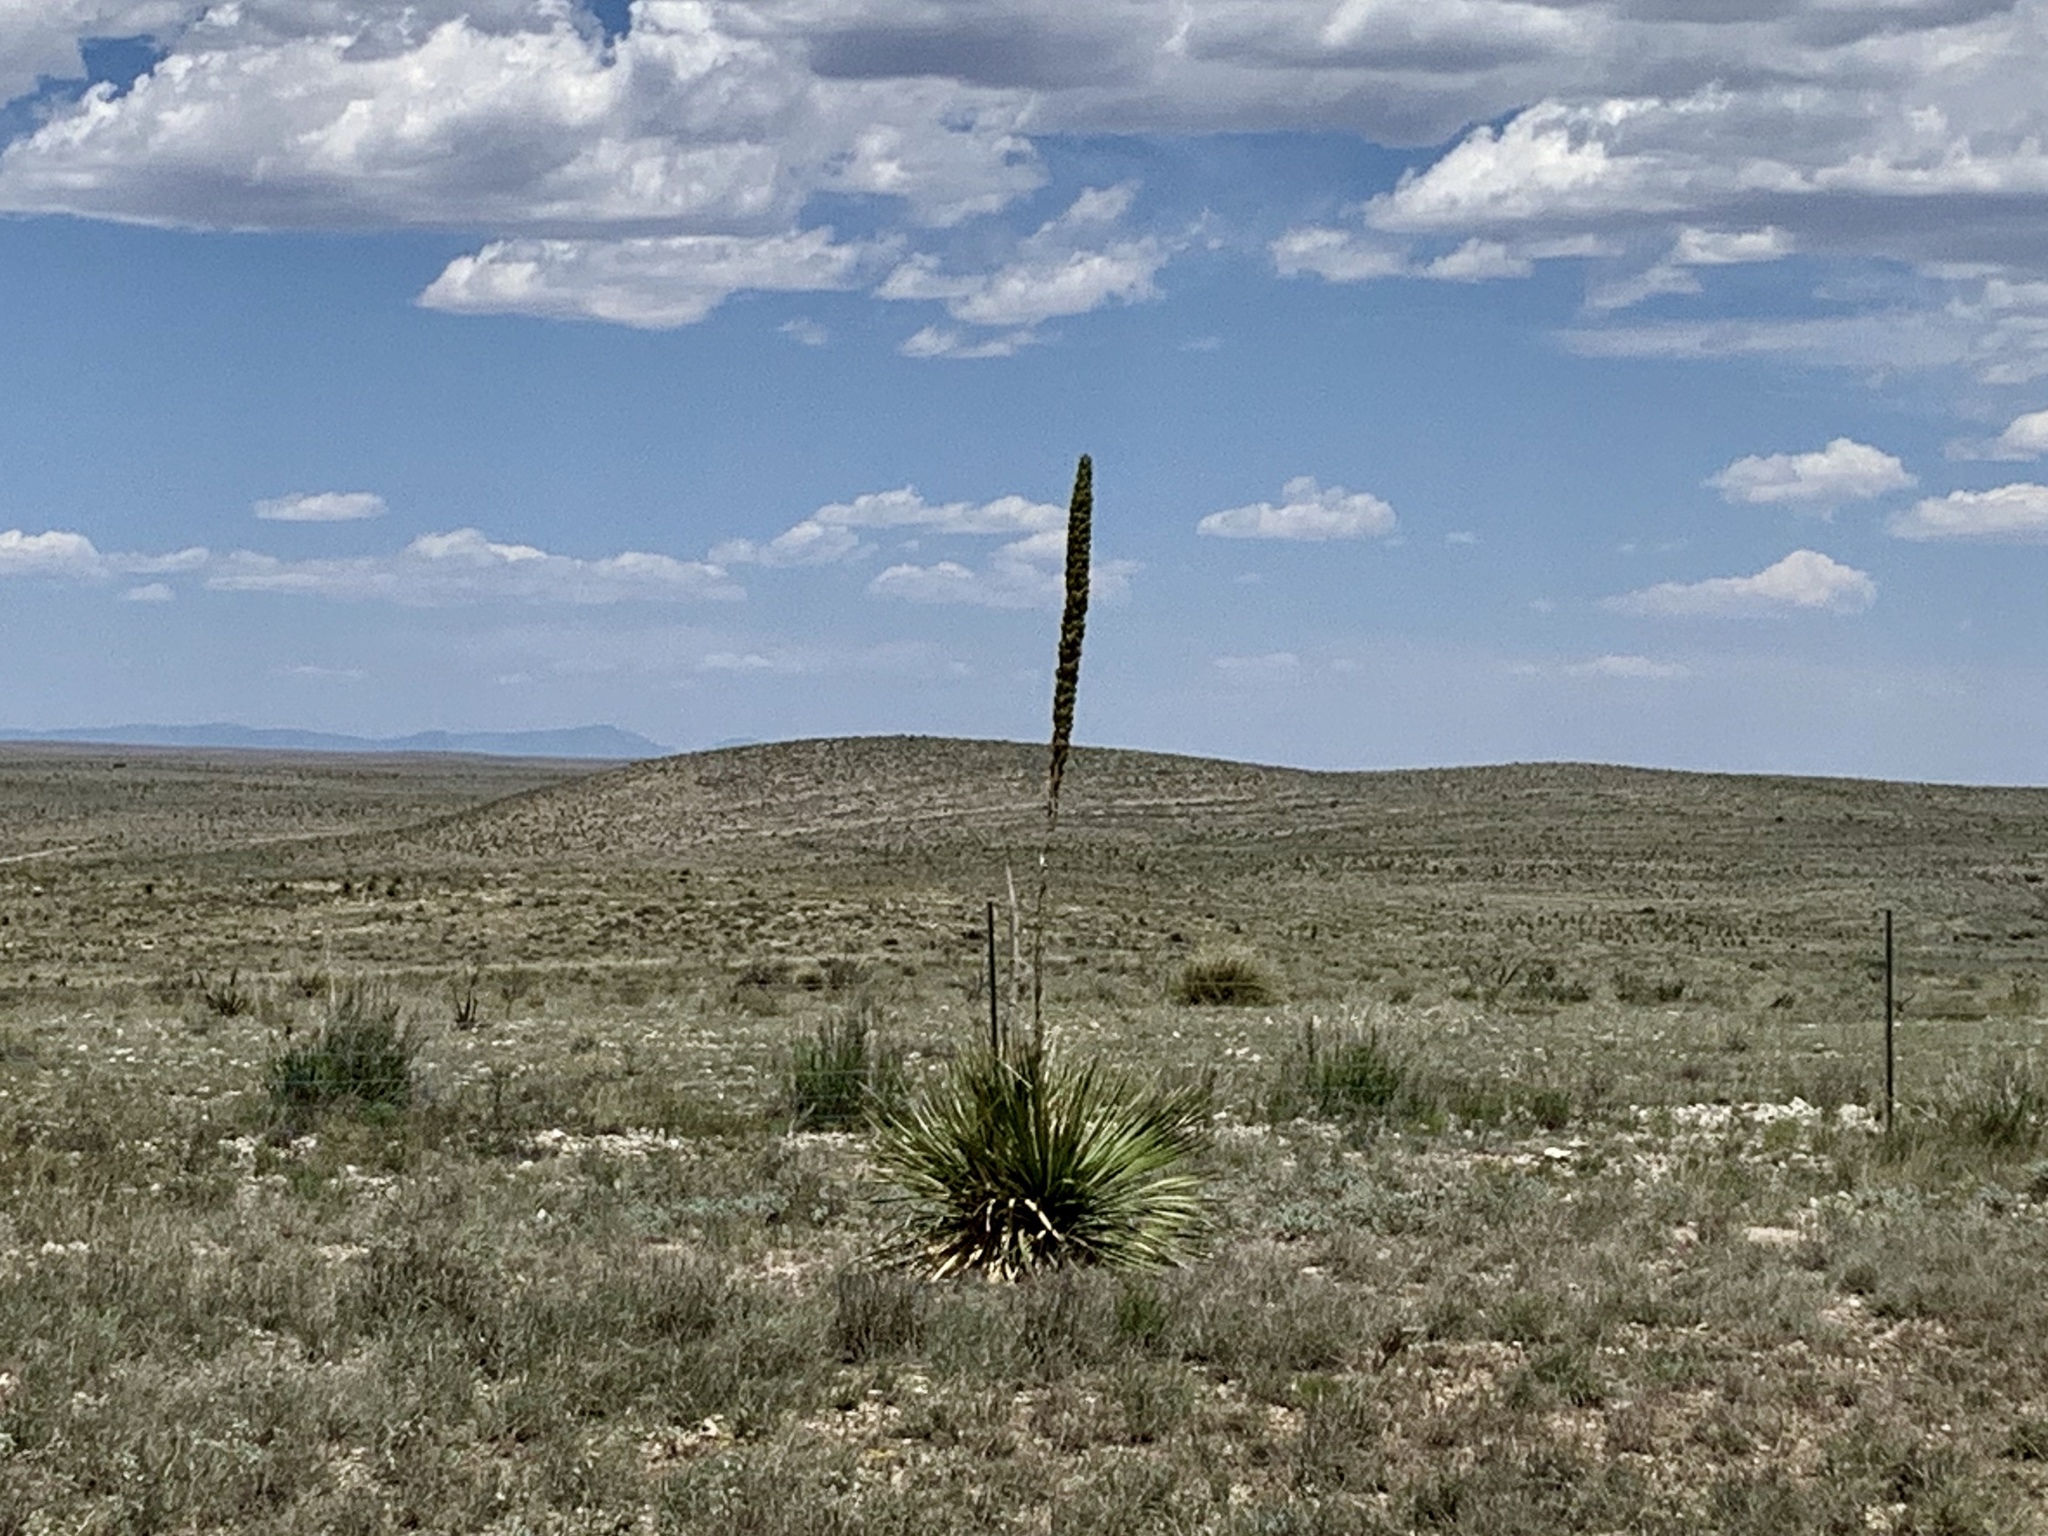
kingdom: Plantae
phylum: Tracheophyta
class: Liliopsida
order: Asparagales
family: Asparagaceae
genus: Dasylirion
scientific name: Dasylirion wheeleri
